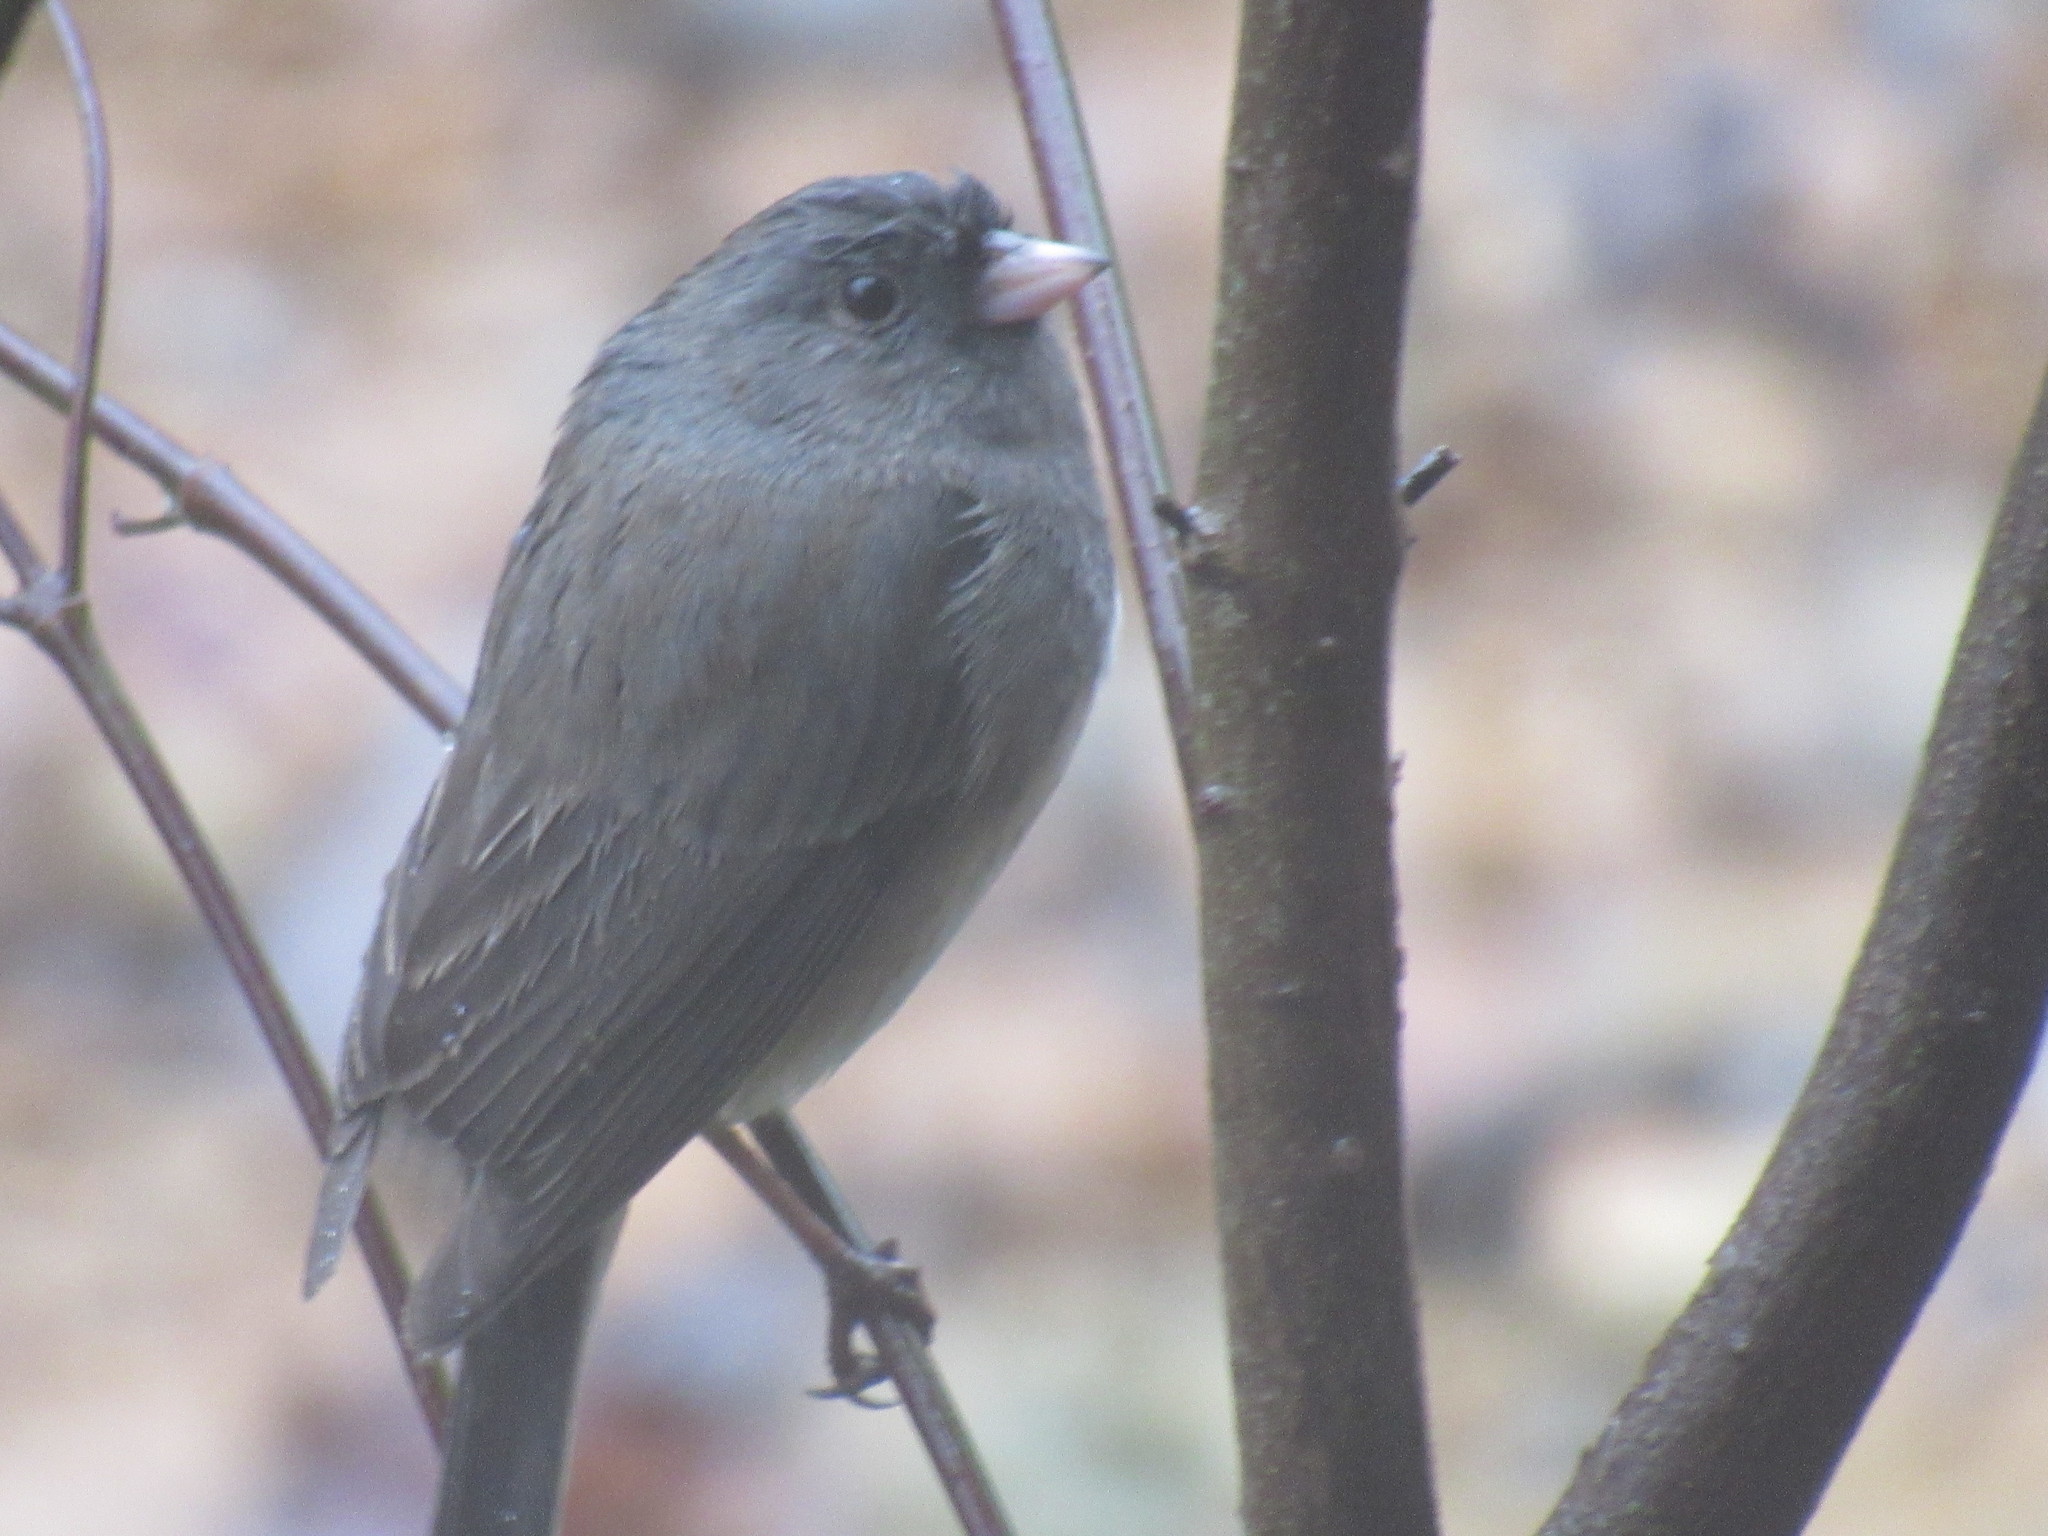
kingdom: Animalia
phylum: Chordata
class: Aves
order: Passeriformes
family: Passerellidae
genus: Junco
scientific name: Junco hyemalis
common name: Dark-eyed junco
